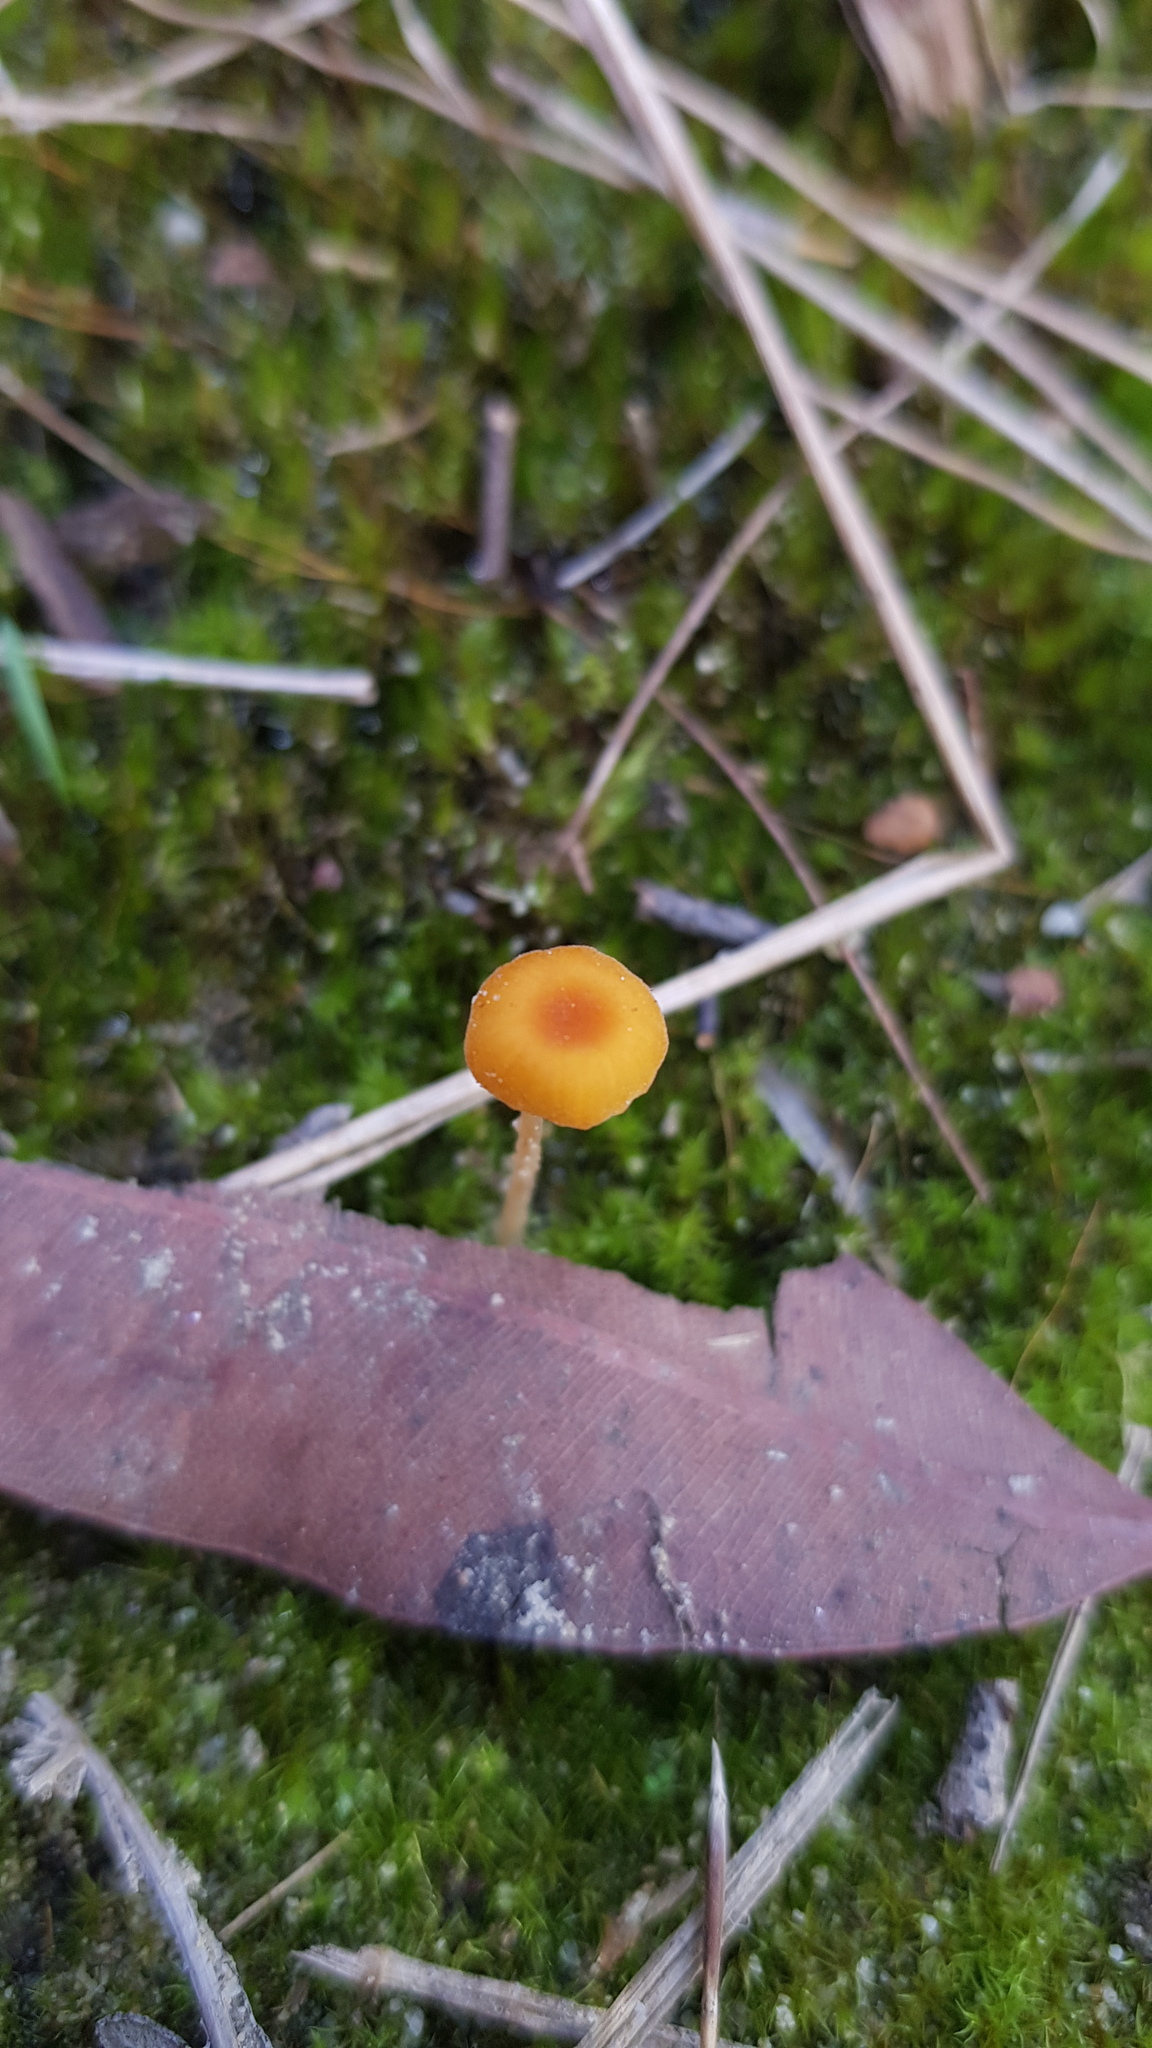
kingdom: Fungi
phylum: Basidiomycota
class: Agaricomycetes
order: Hymenochaetales
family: Rickenellaceae
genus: Rickenella
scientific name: Rickenella fibula
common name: Orange mosscap
